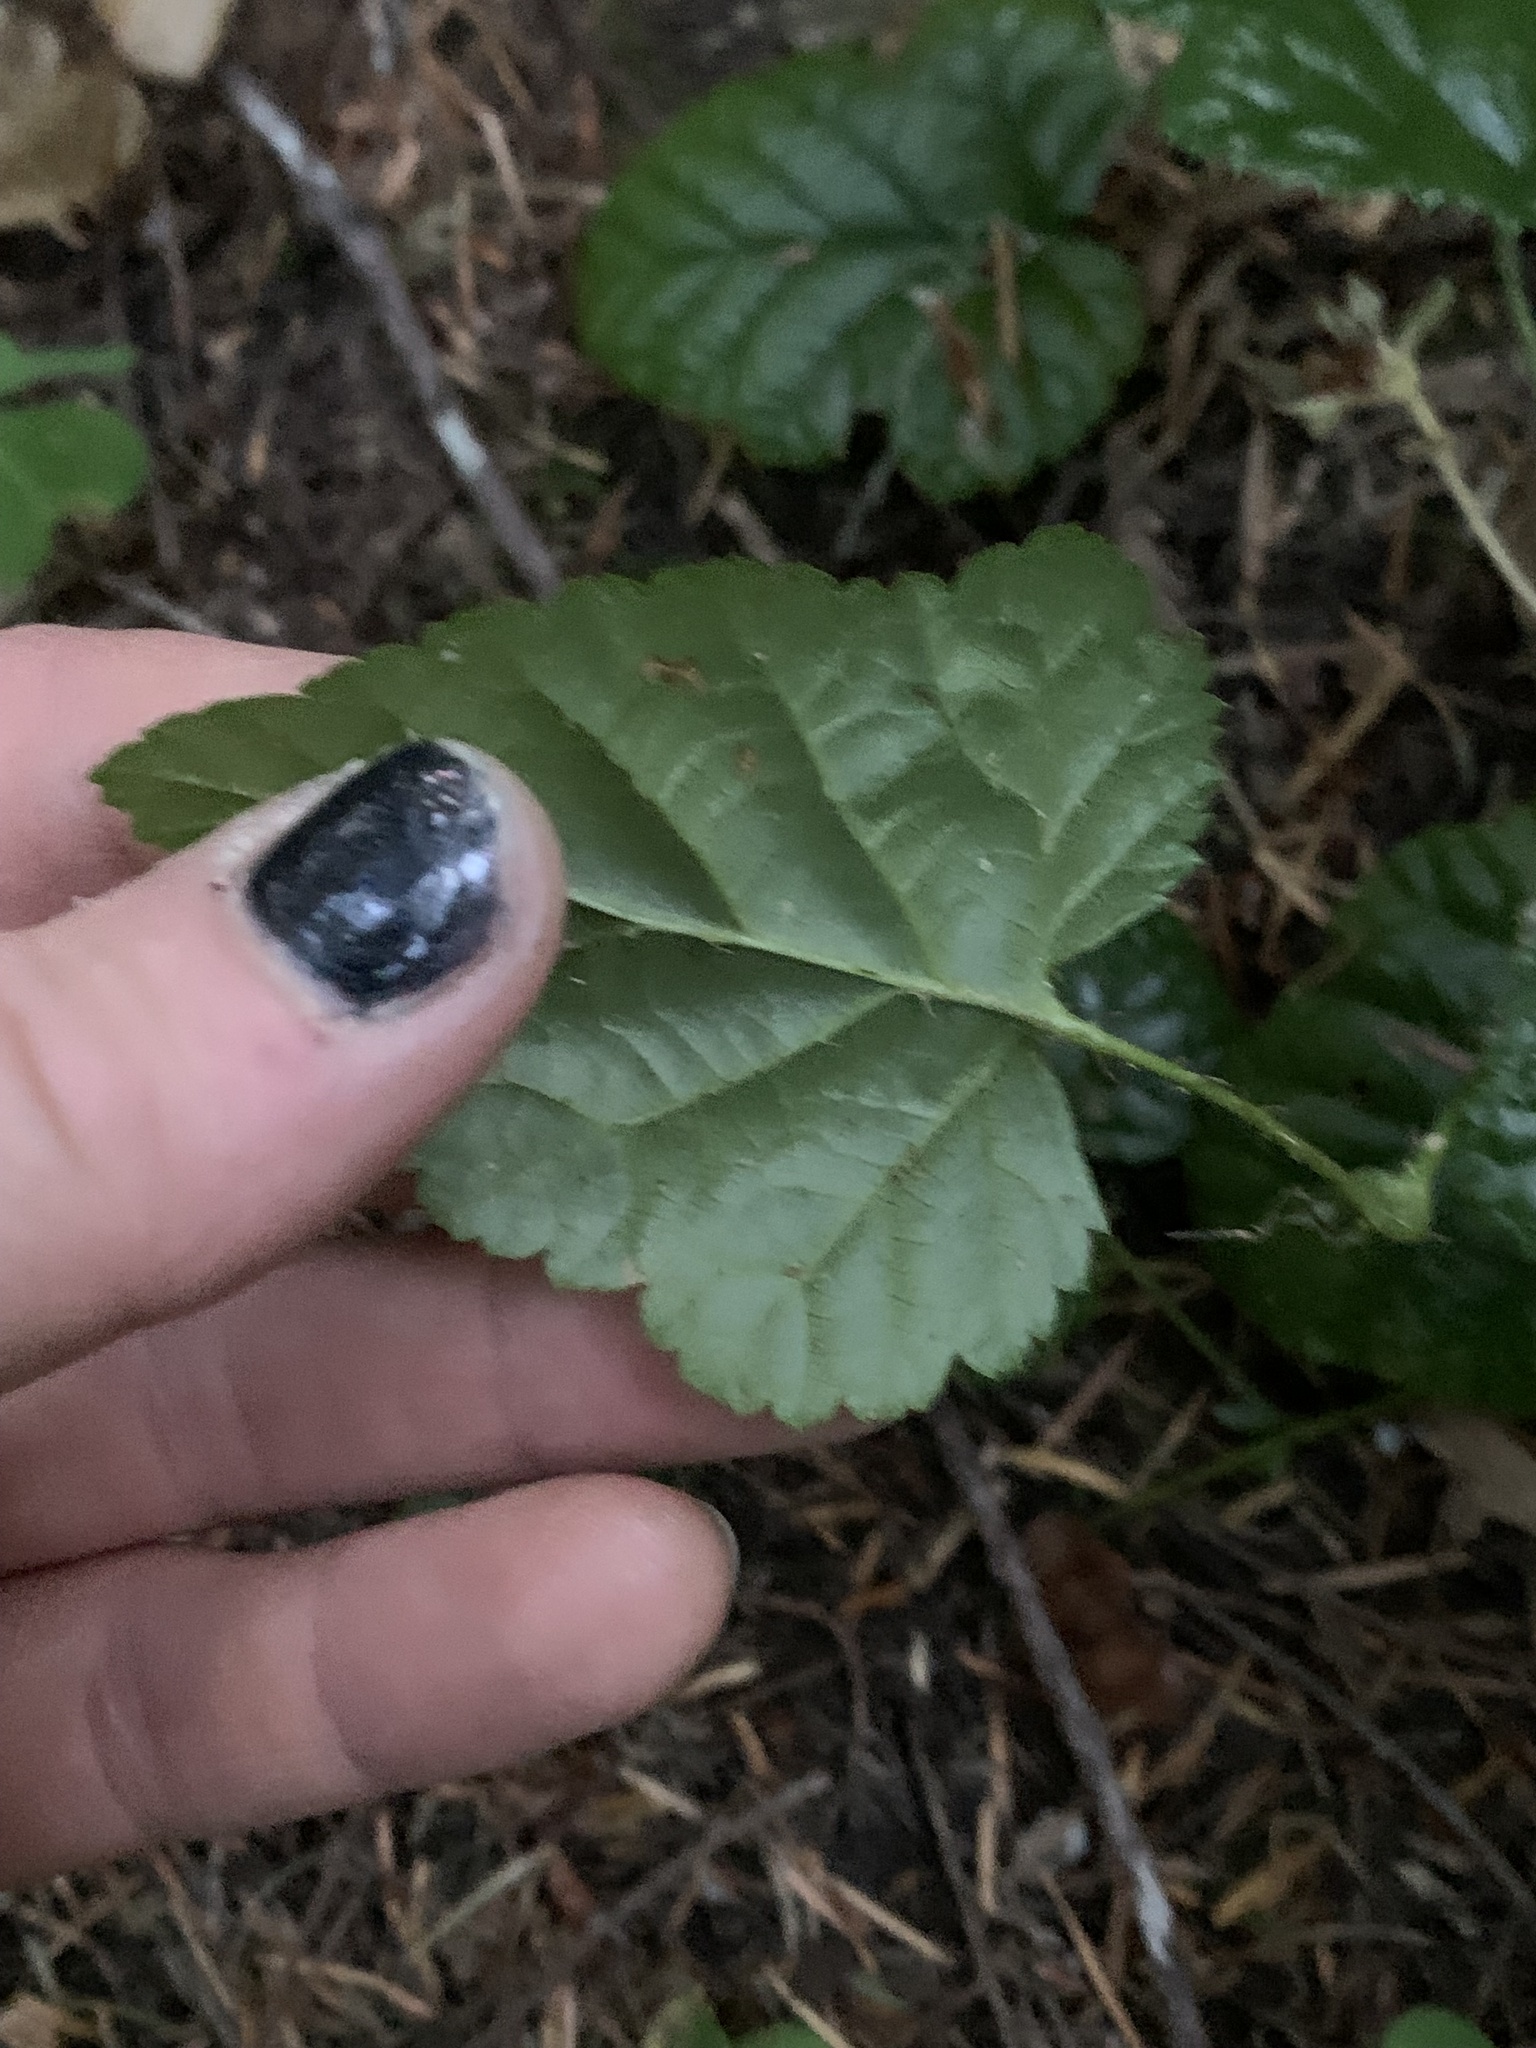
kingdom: Plantae
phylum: Tracheophyta
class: Magnoliopsida
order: Rosales
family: Rosaceae
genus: Rubus
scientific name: Rubus nivalis
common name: Dwarf snow bramble
